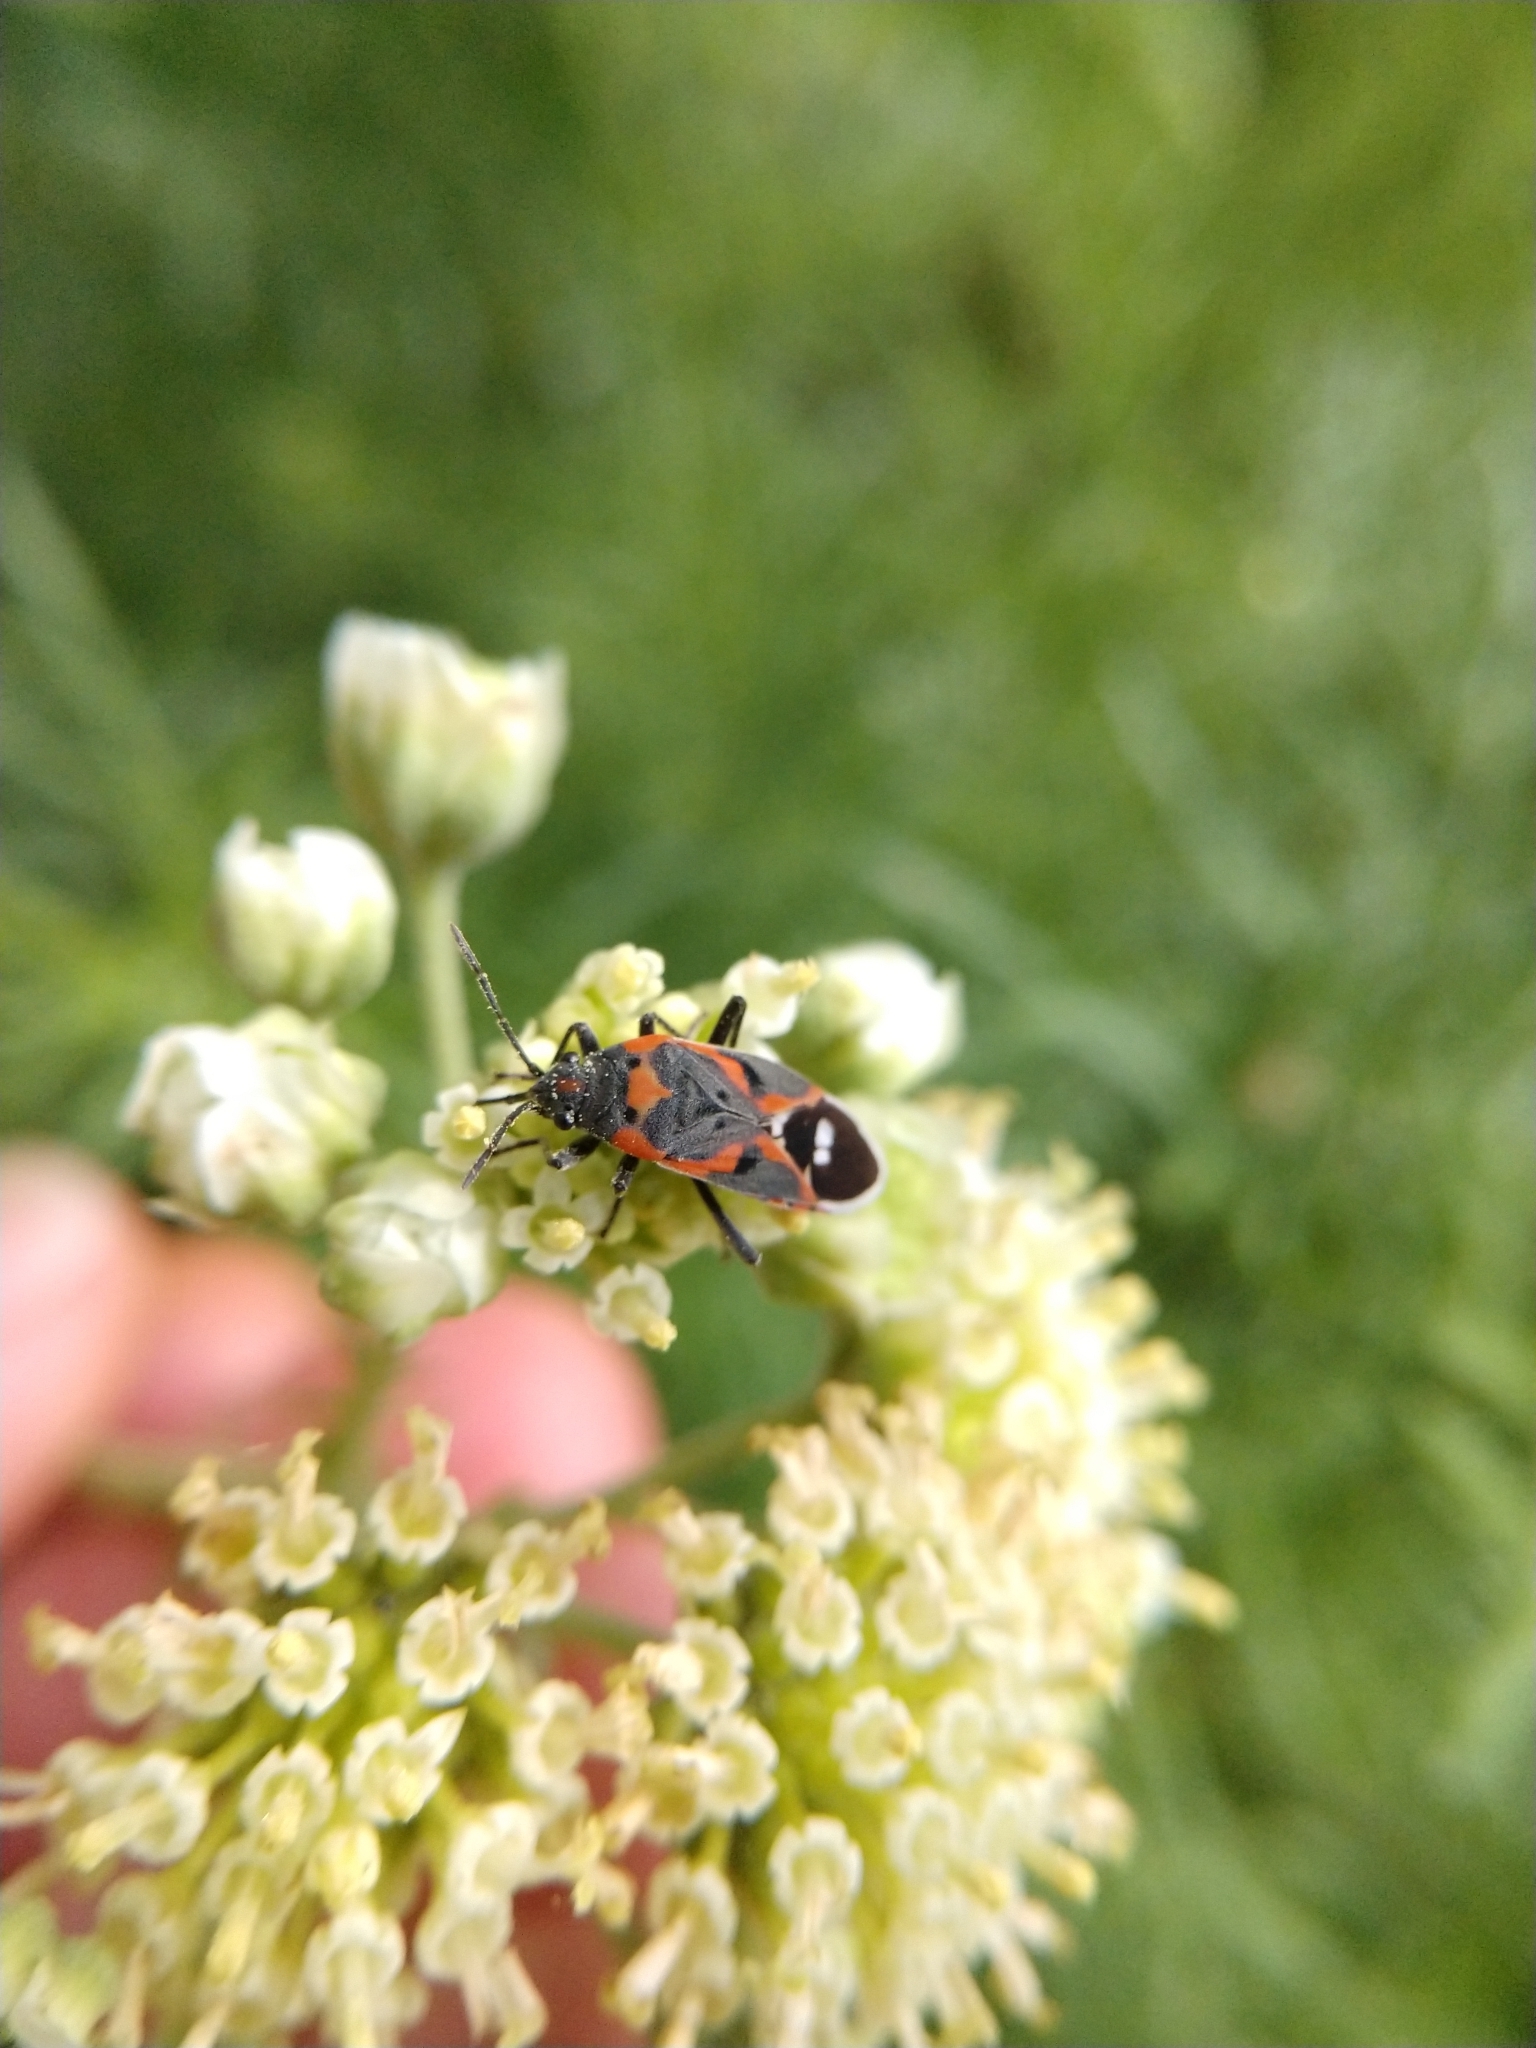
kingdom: Animalia
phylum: Arthropoda
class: Insecta
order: Hemiptera
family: Lygaeidae
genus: Lygaeus
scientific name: Lygaeus kalmii
